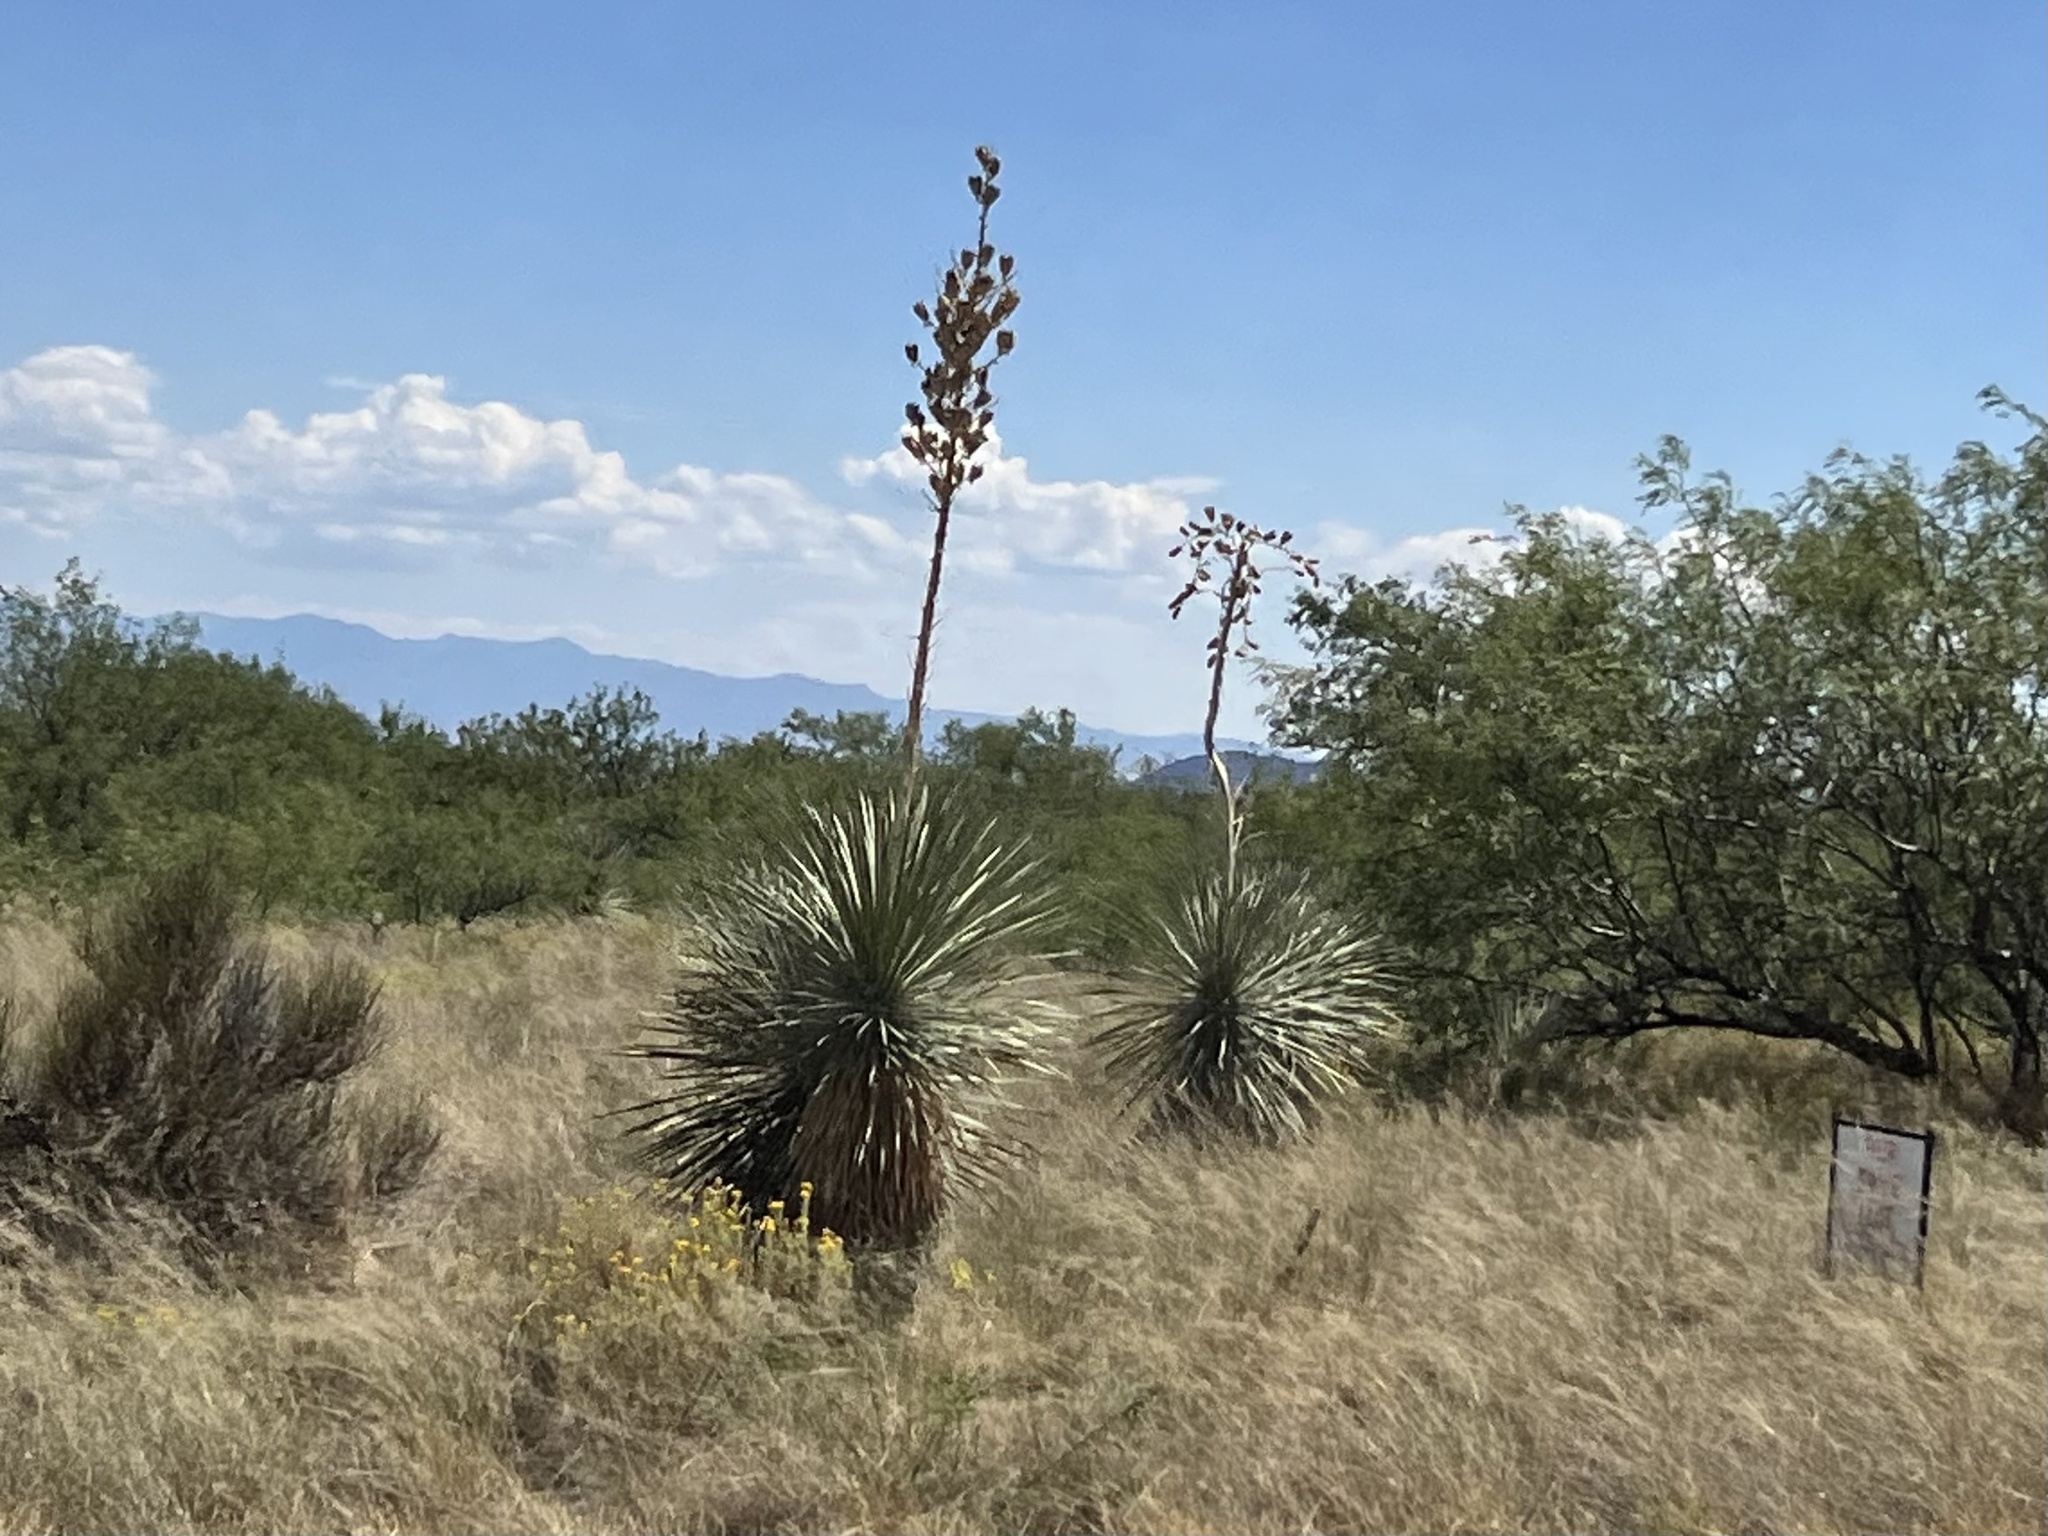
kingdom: Plantae
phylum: Tracheophyta
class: Liliopsida
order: Asparagales
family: Asparagaceae
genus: Yucca
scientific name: Yucca elata
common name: Palmella
